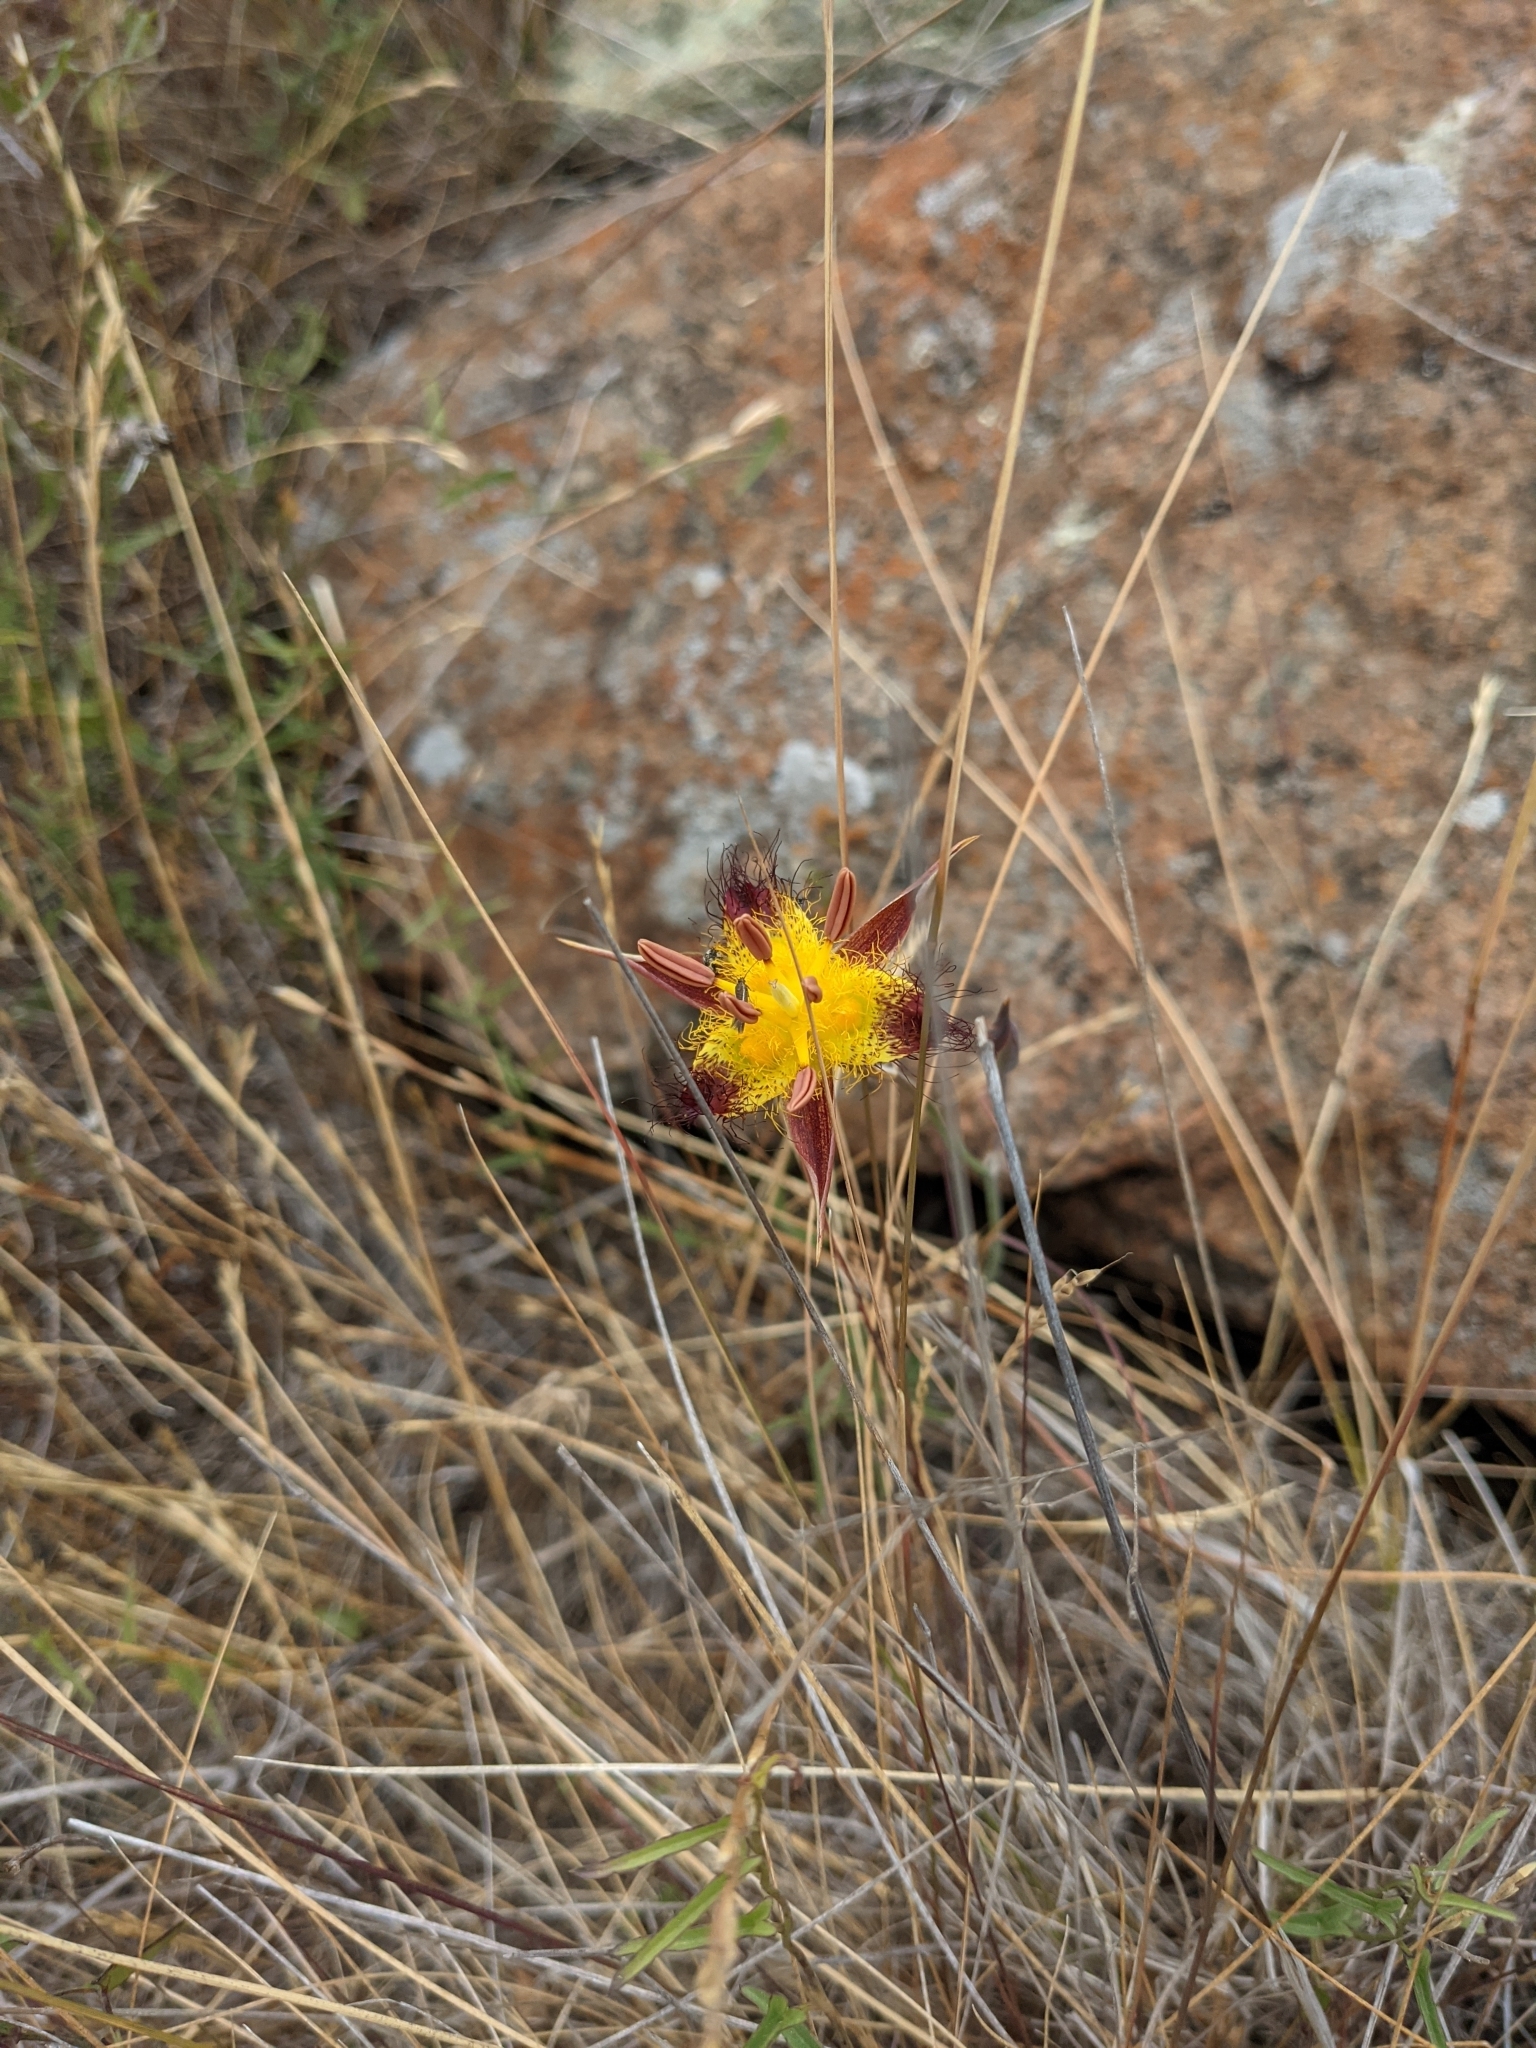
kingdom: Plantae
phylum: Tracheophyta
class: Liliopsida
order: Liliales
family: Liliaceae
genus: Calochortus
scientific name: Calochortus obispoensis
